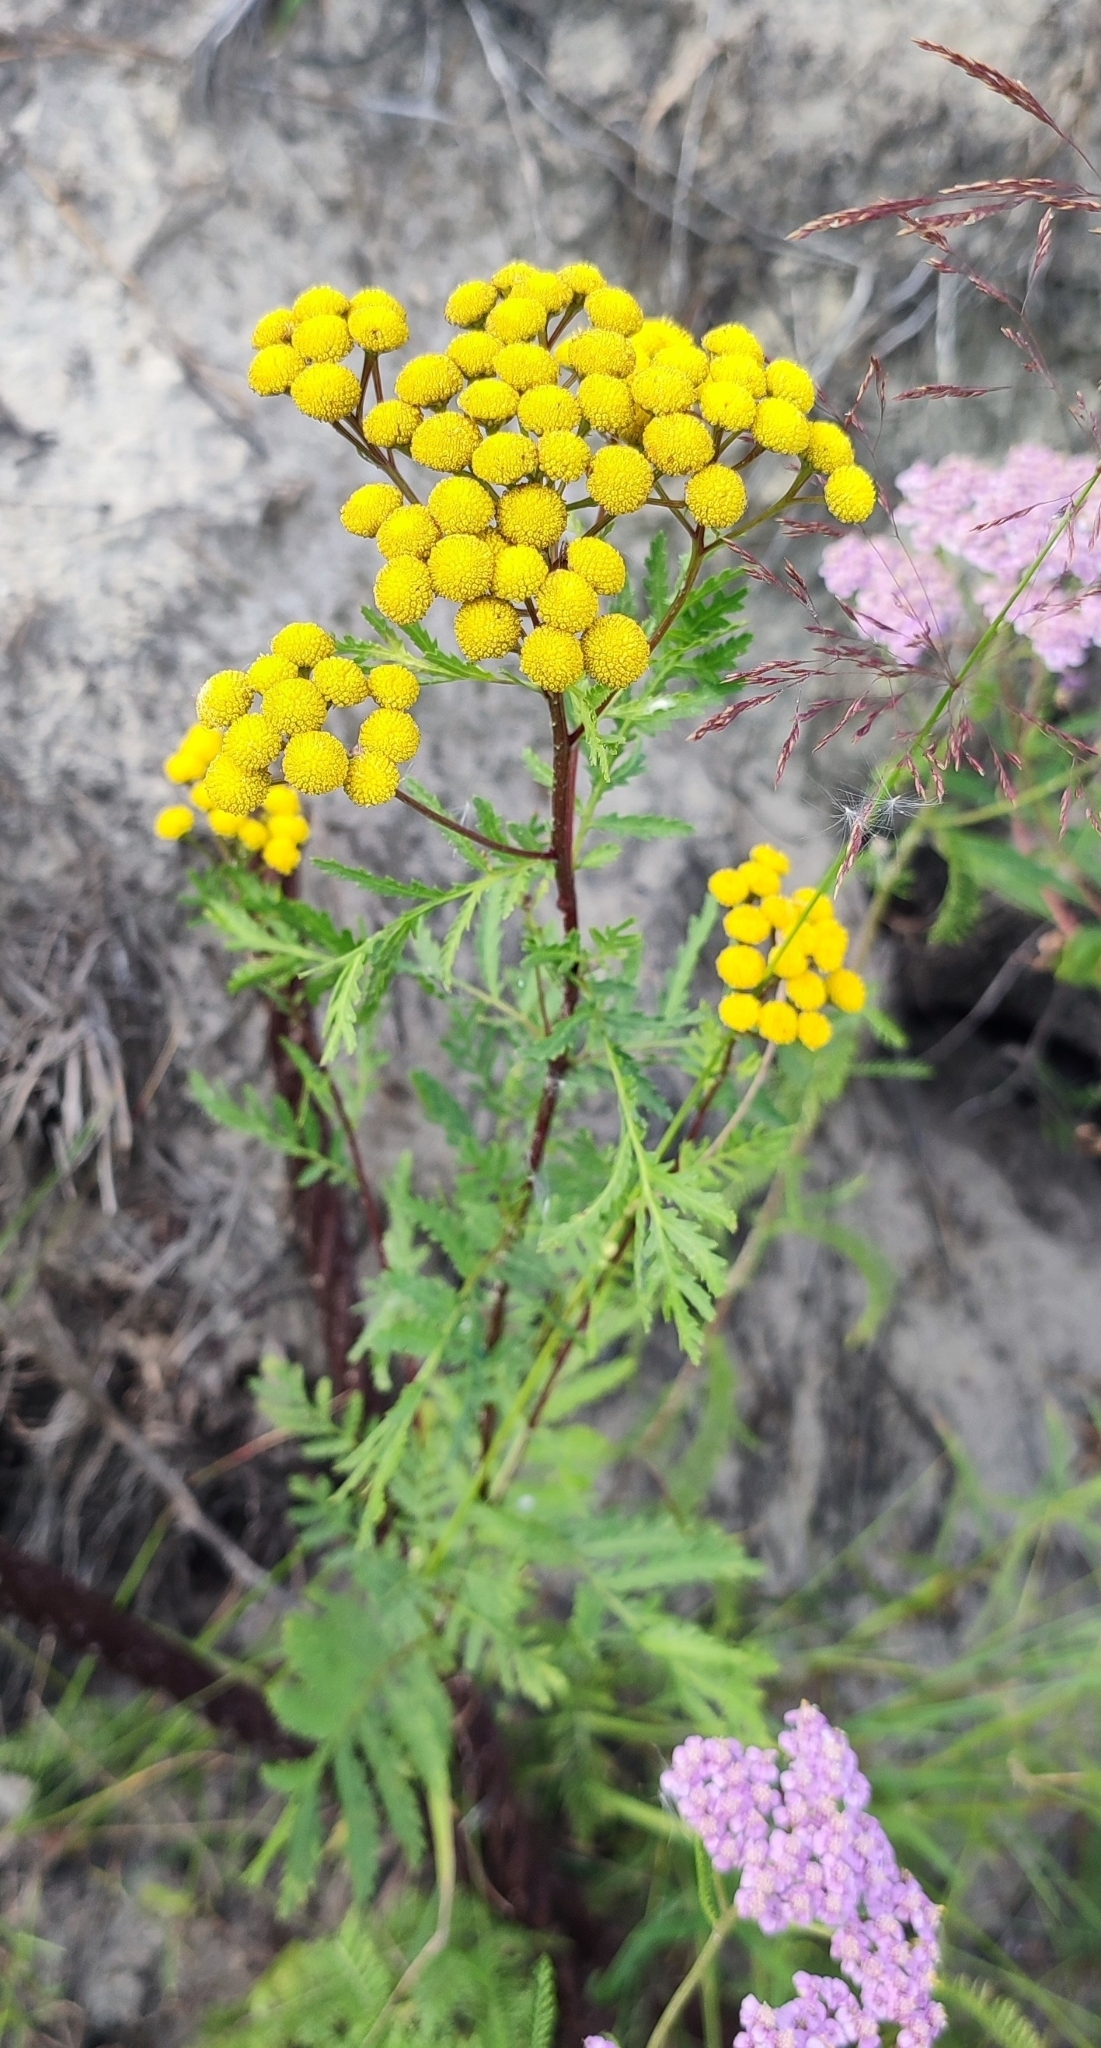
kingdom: Plantae
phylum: Tracheophyta
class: Magnoliopsida
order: Asterales
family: Asteraceae
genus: Tanacetum
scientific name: Tanacetum vulgare
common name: Common tansy
